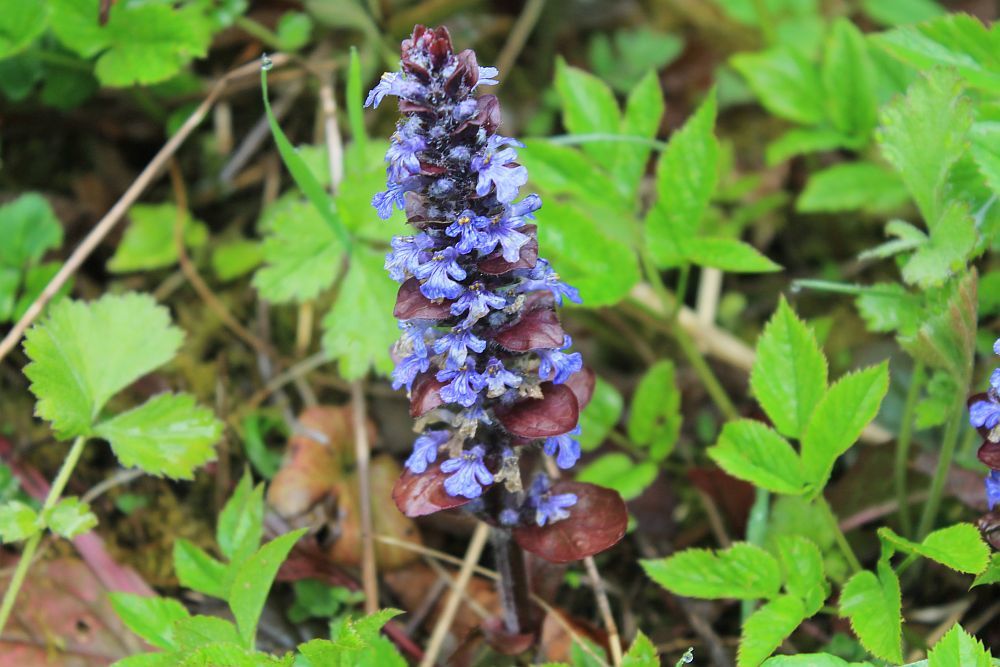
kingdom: Plantae
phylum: Tracheophyta
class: Magnoliopsida
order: Lamiales
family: Lamiaceae
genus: Ajuga
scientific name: Ajuga reptans
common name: Bugle
